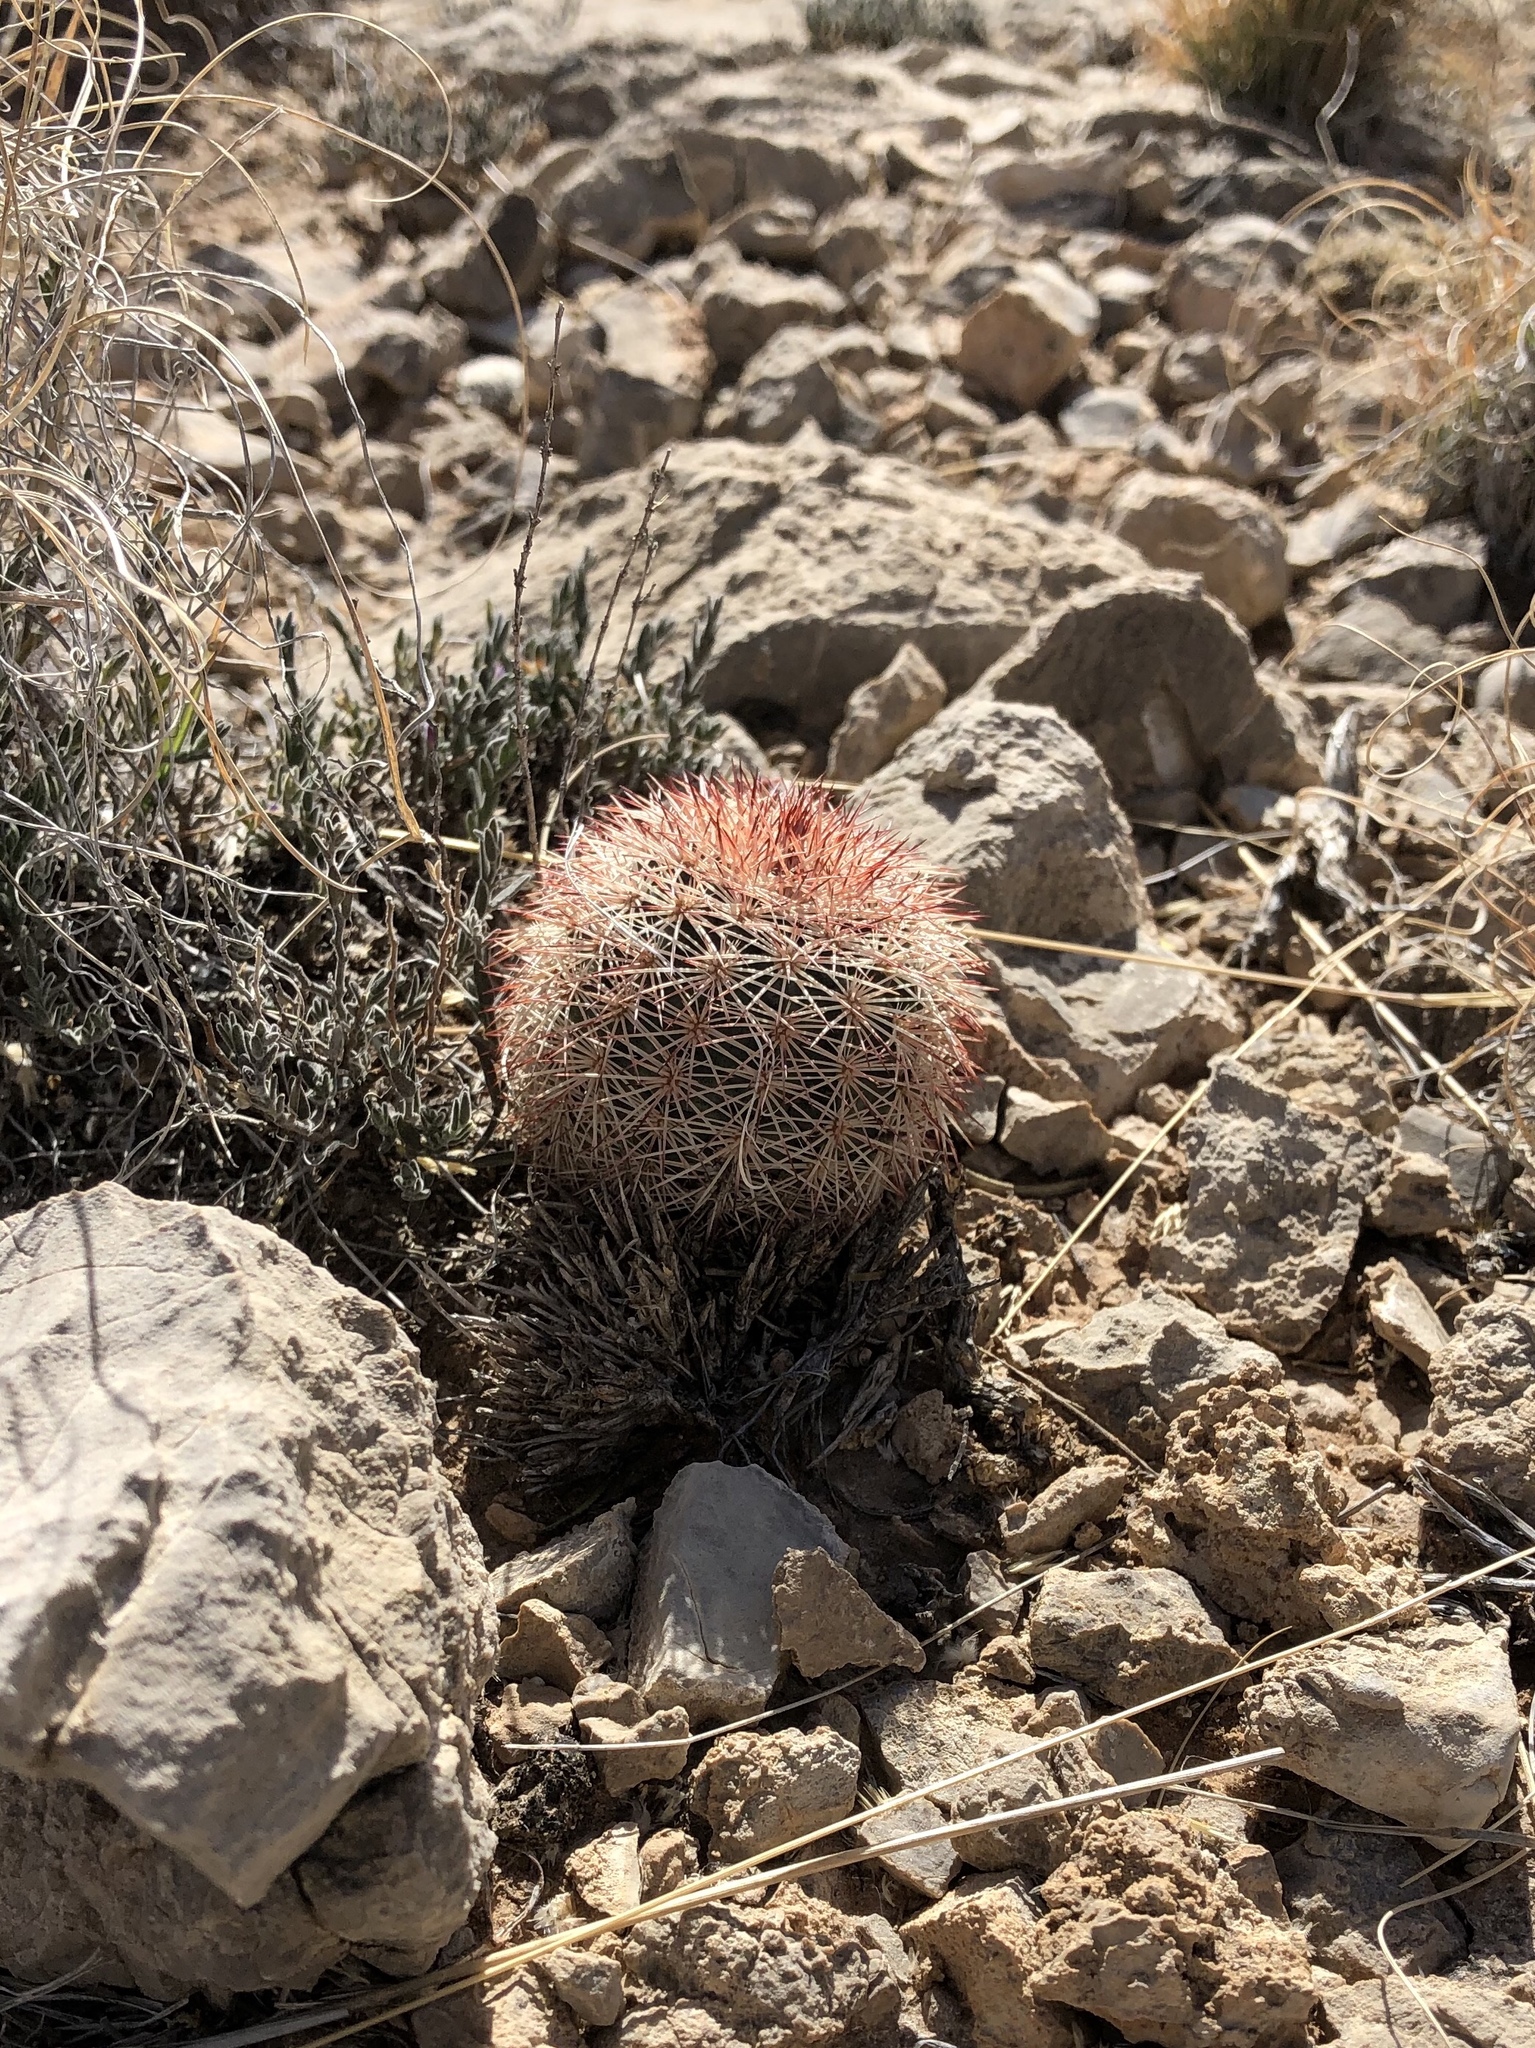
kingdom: Plantae
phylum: Tracheophyta
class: Magnoliopsida
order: Caryophyllales
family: Cactaceae
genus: Echinocereus
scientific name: Echinocereus dasyacanthus
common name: Spiny hedgehog cactus
